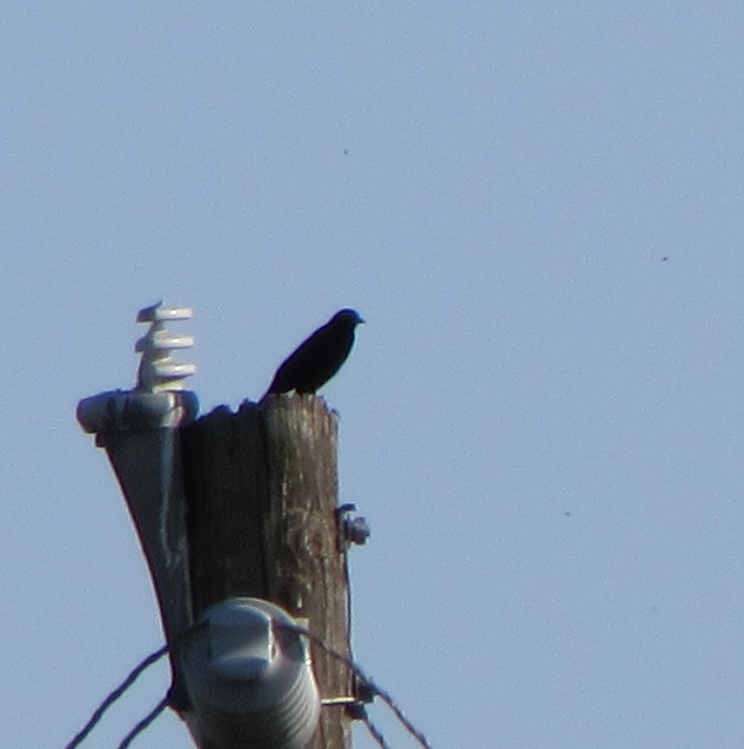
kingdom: Animalia
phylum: Chordata
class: Aves
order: Passeriformes
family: Corvidae
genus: Corvus
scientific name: Corvus brachyrhynchos
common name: American crow
